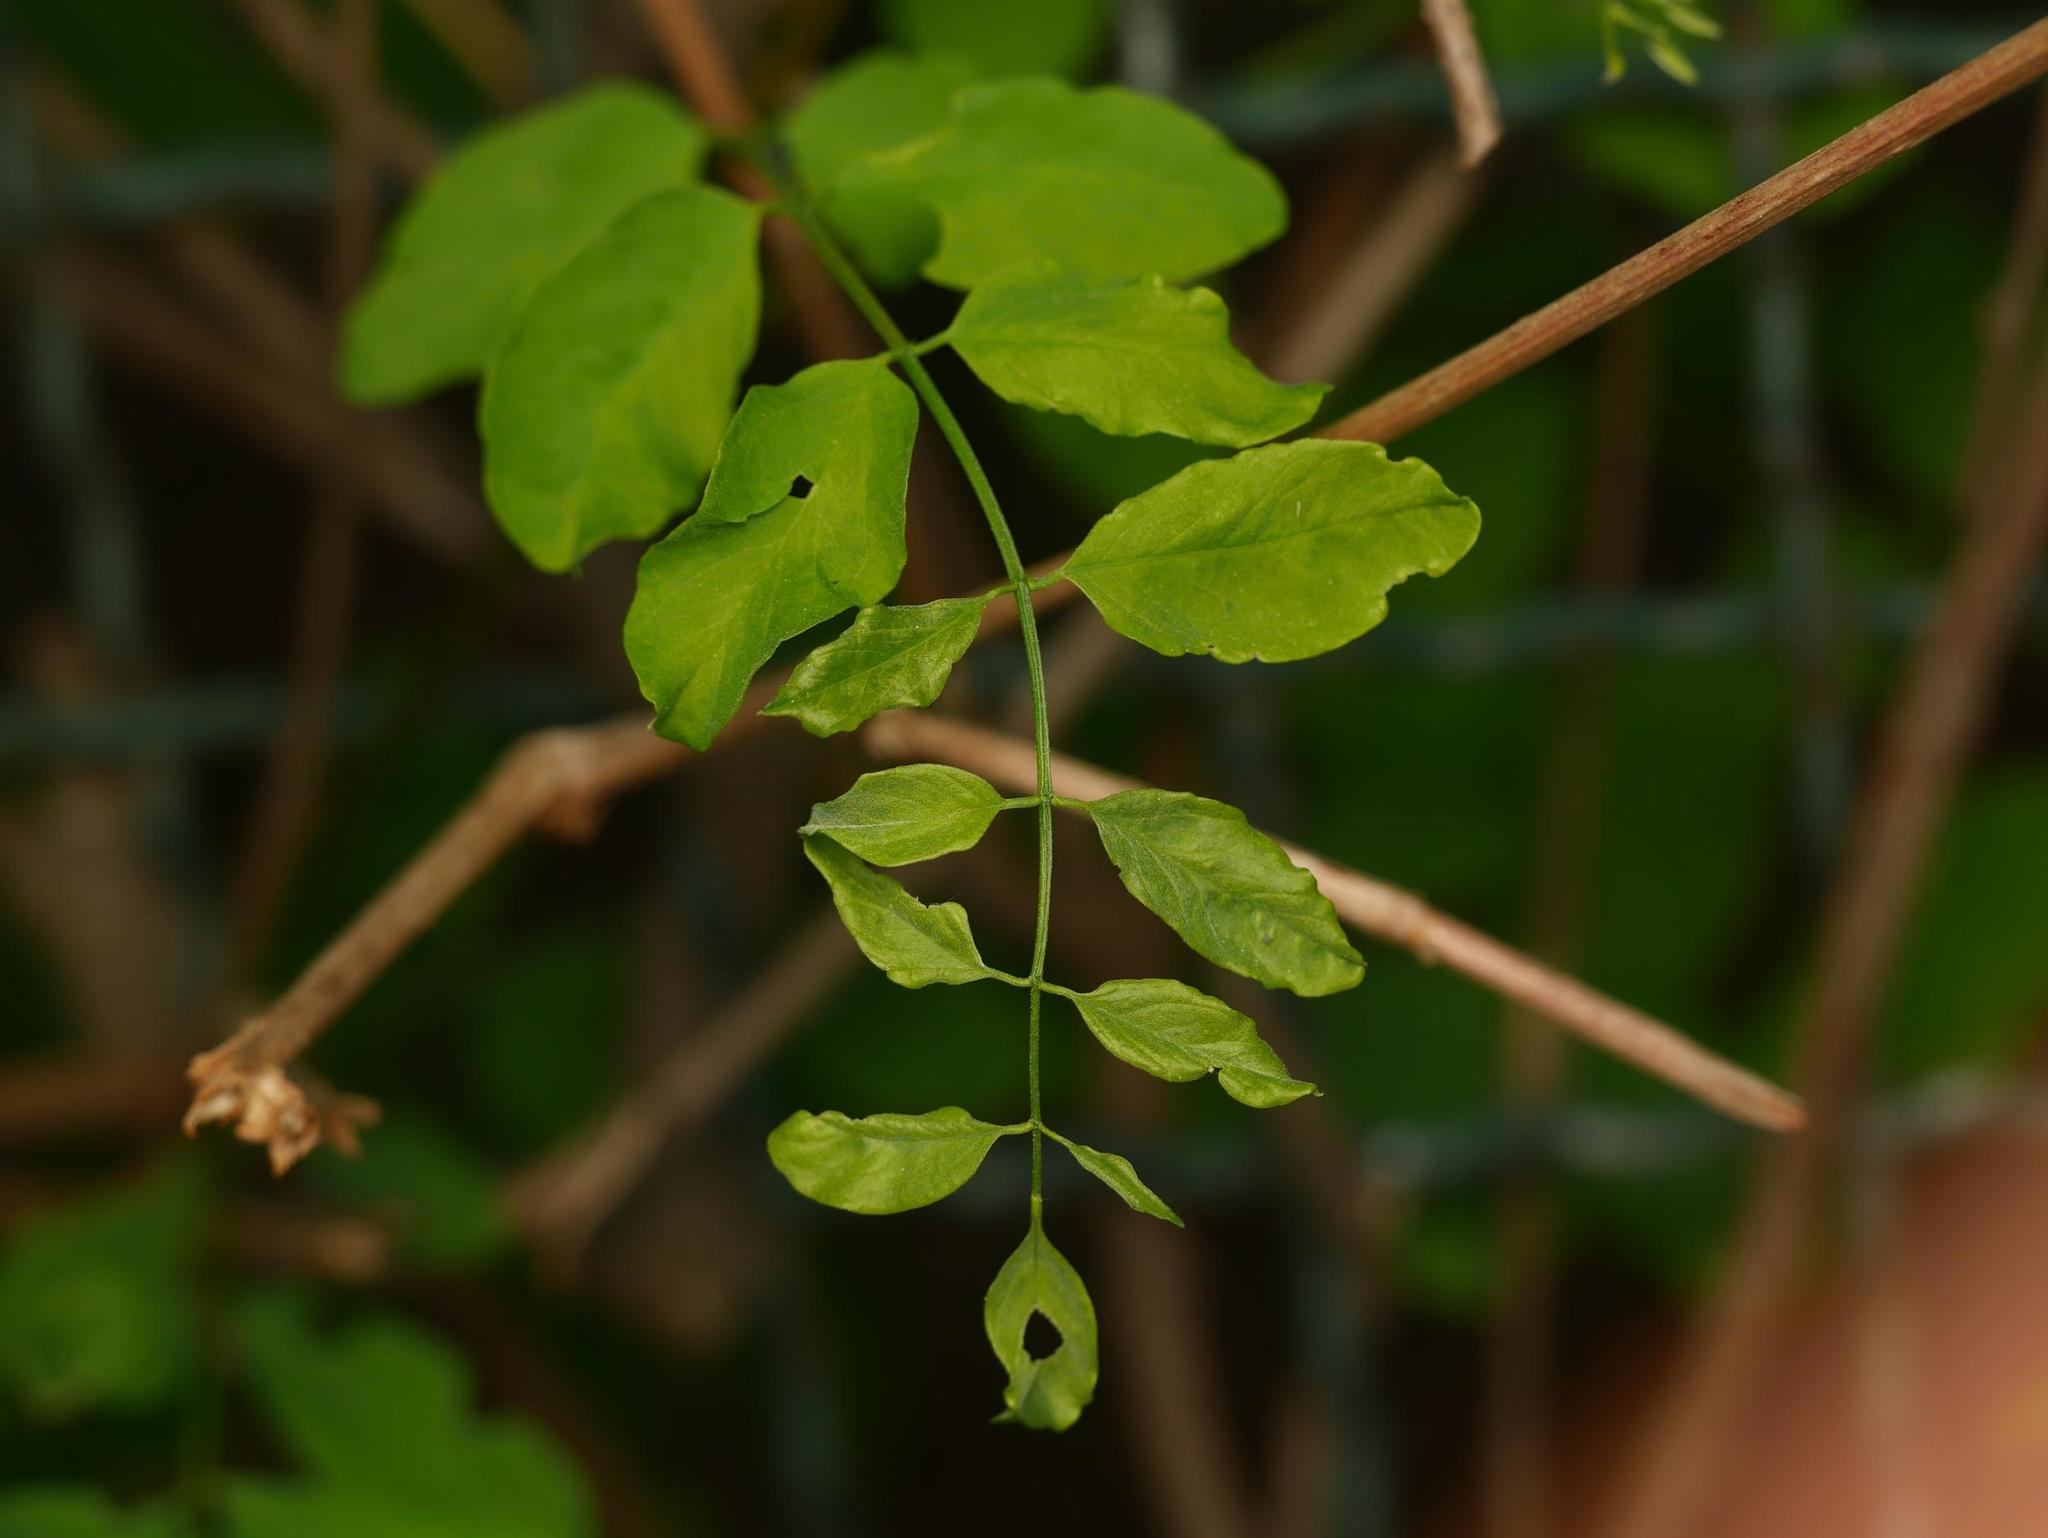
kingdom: Plantae
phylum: Tracheophyta
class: Magnoliopsida
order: Fabales
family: Fabaceae
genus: Robinia
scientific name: Robinia pseudoacacia
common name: Black locust
